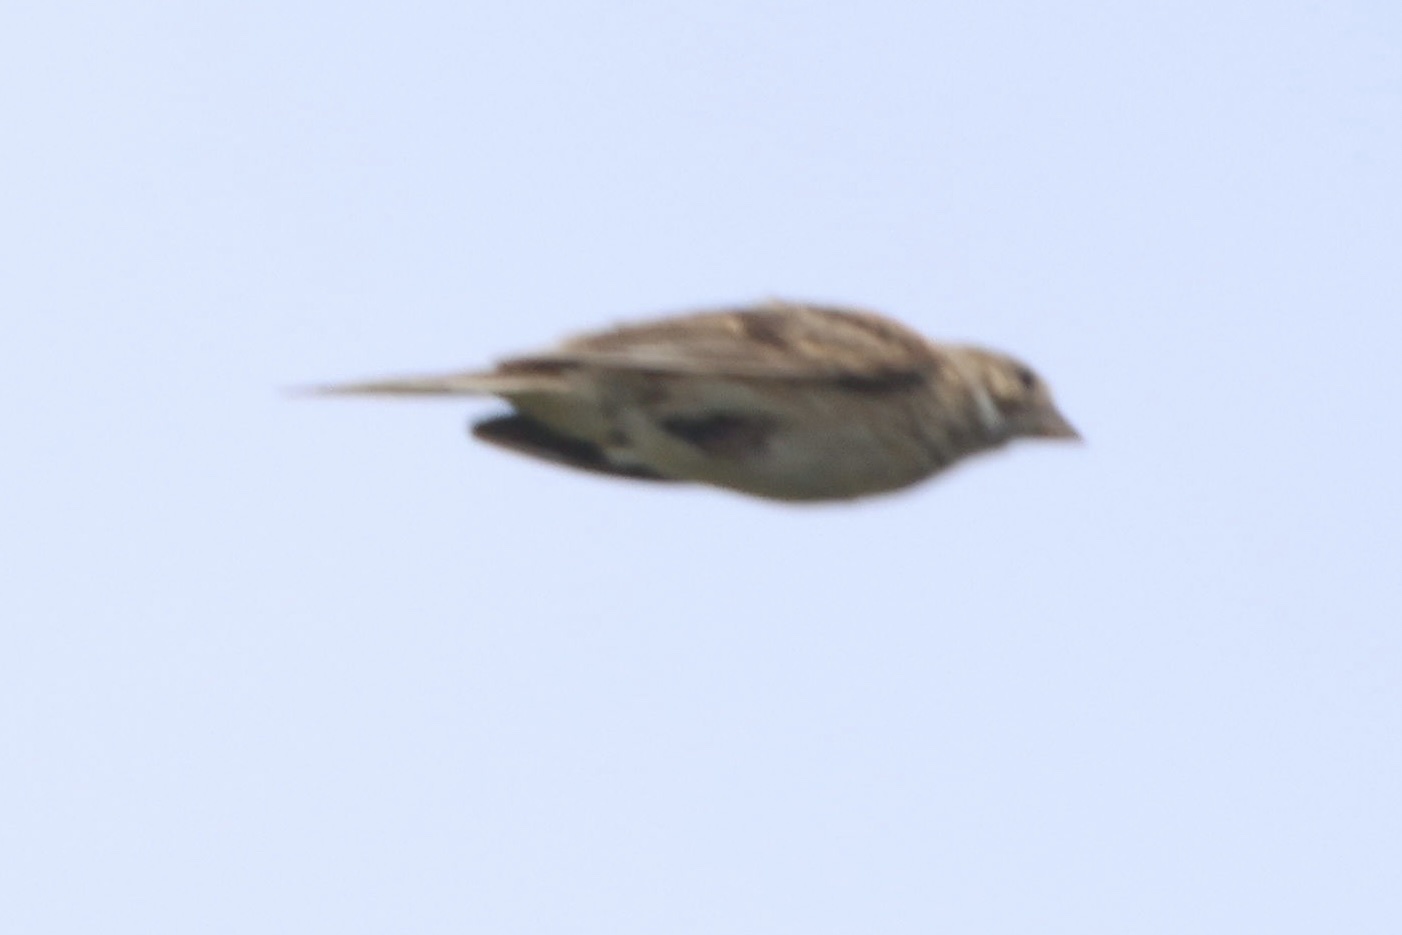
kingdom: Animalia
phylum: Chordata
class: Aves
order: Passeriformes
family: Passerellidae
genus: Pooecetes
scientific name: Pooecetes gramineus
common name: Vesper sparrow
